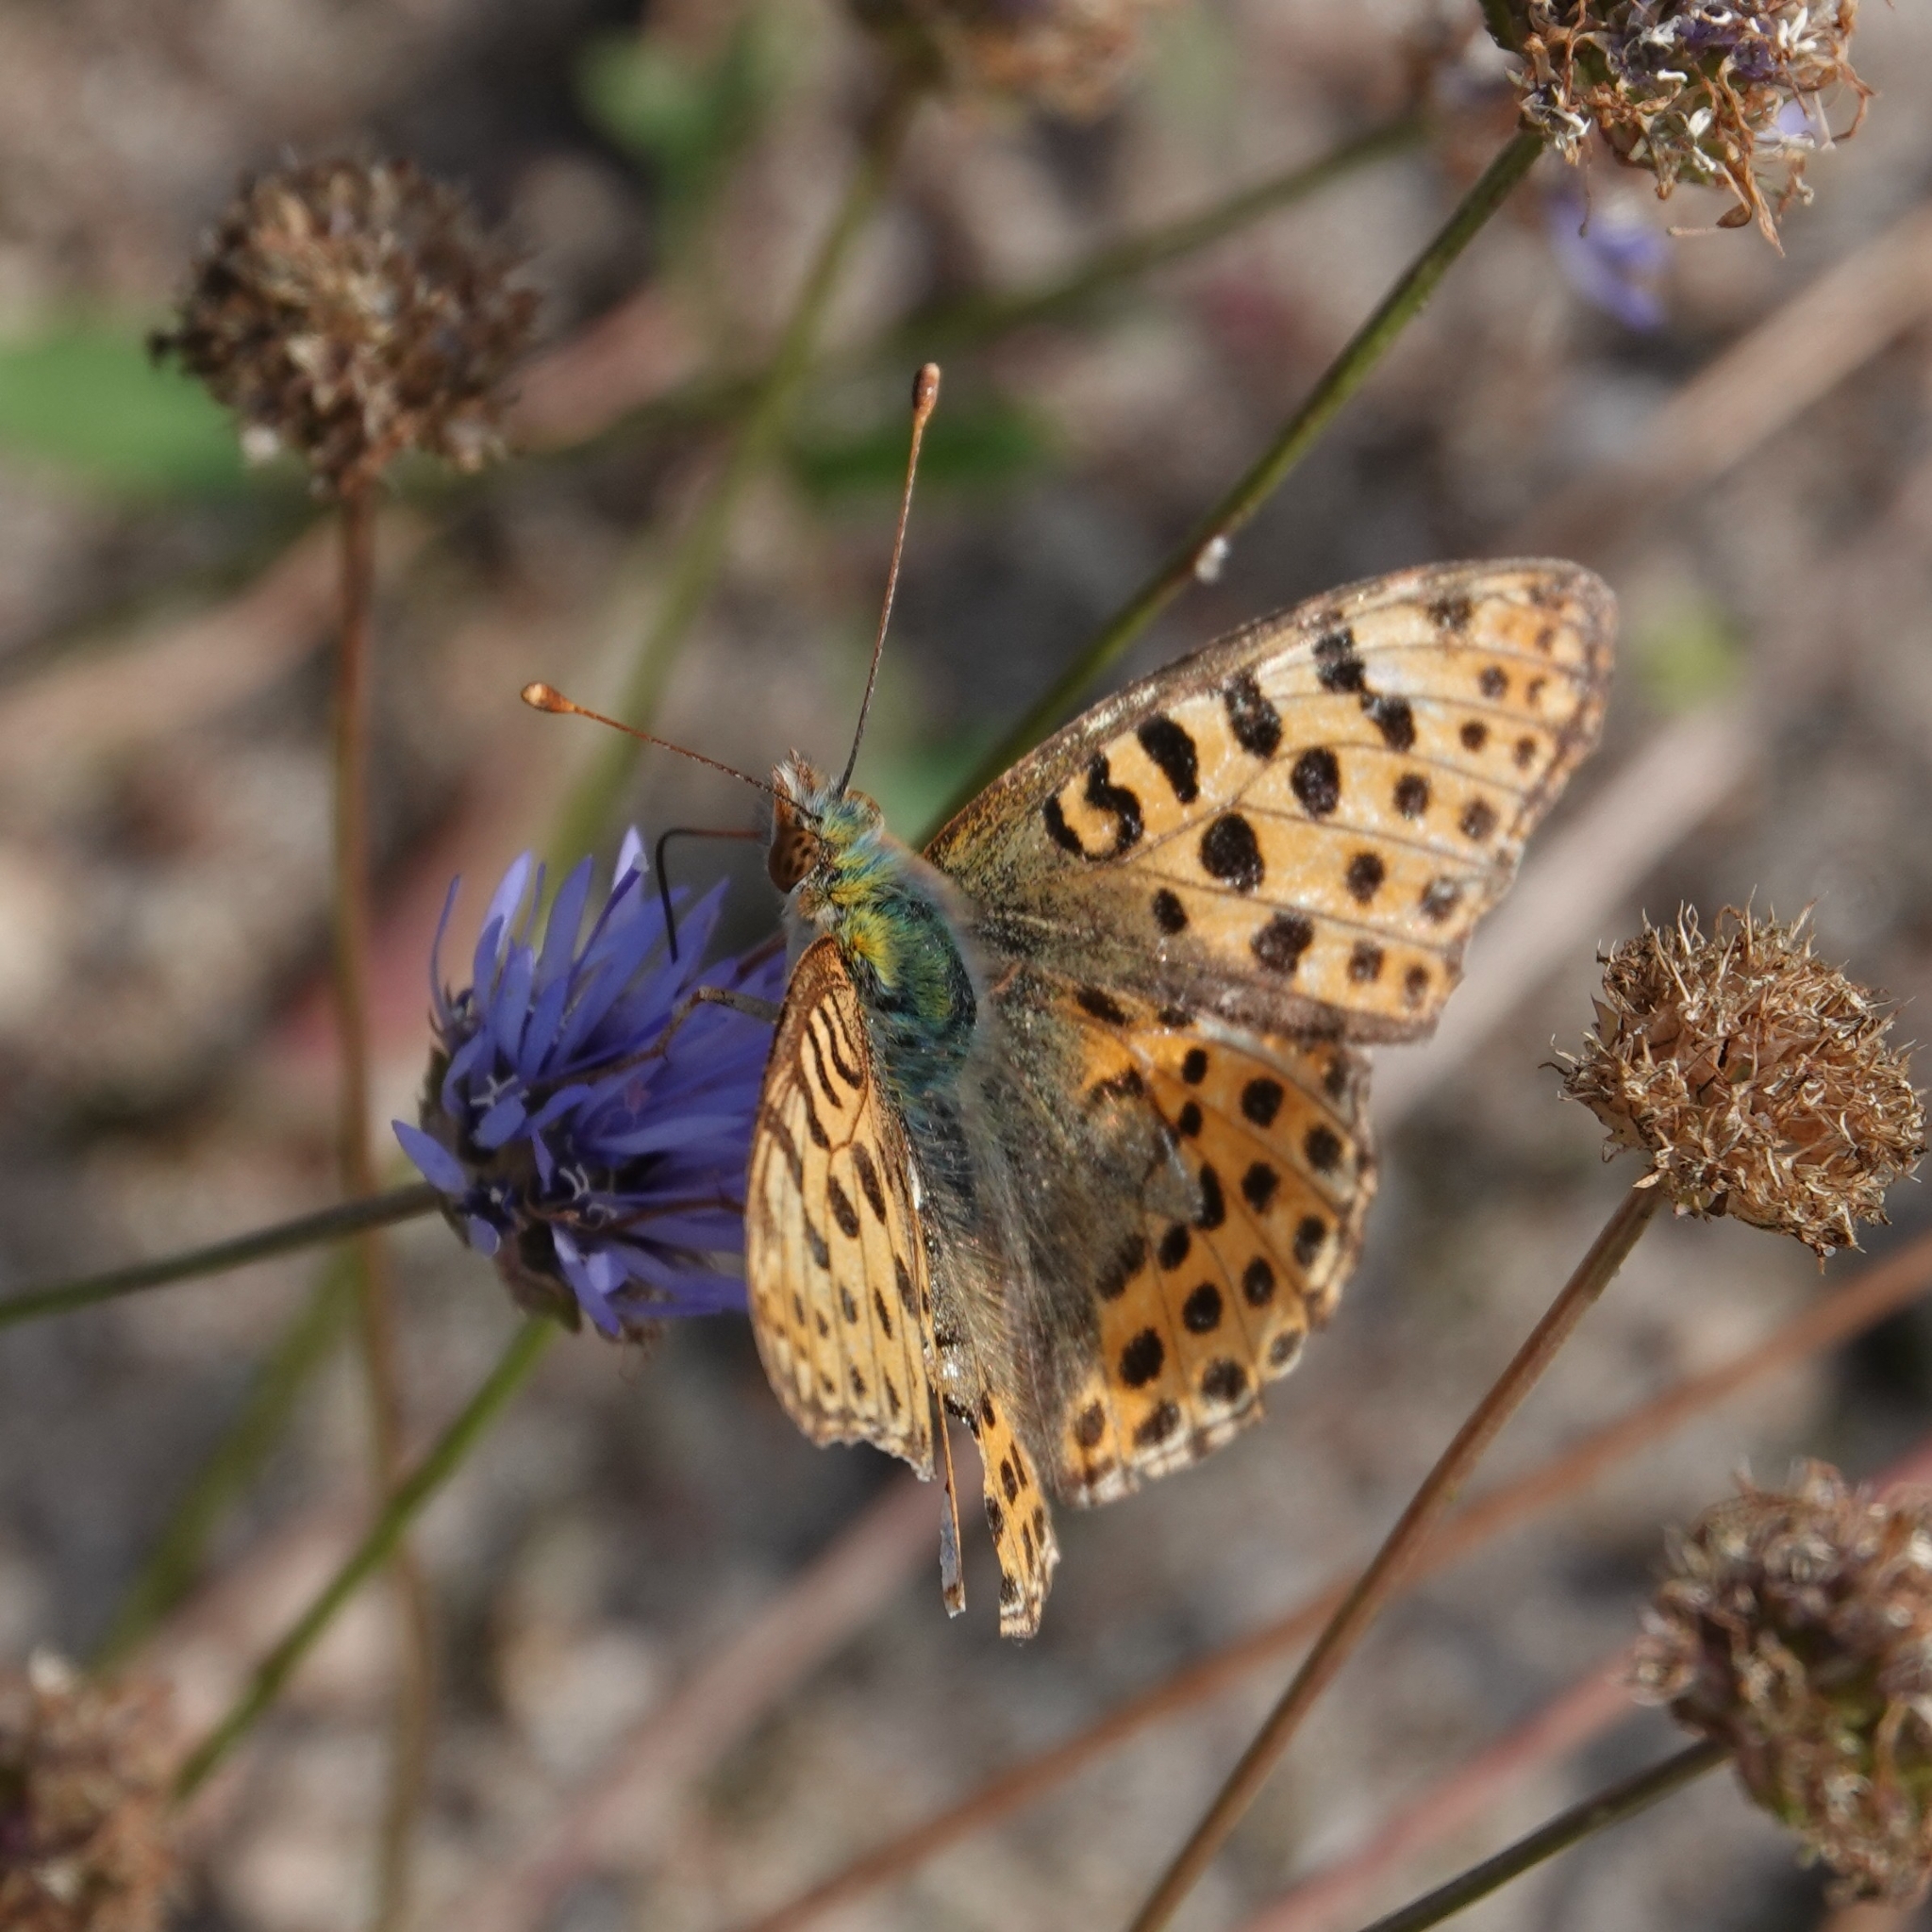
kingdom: Animalia
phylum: Arthropoda
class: Insecta
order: Lepidoptera
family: Nymphalidae
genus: Issoria
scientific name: Issoria lathonia
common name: Queen of spain fritillary
